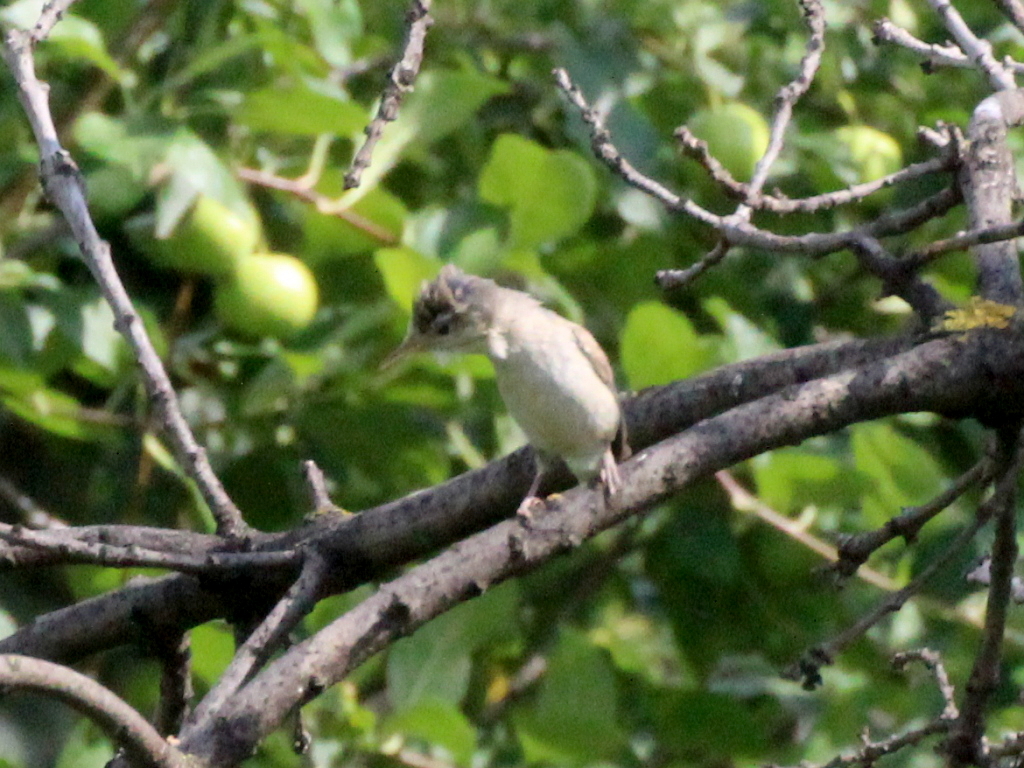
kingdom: Animalia
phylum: Chordata
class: Aves
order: Passeriformes
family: Acrocephalidae
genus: Iduna
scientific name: Iduna pallida
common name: Eastern olivaceous warbler
